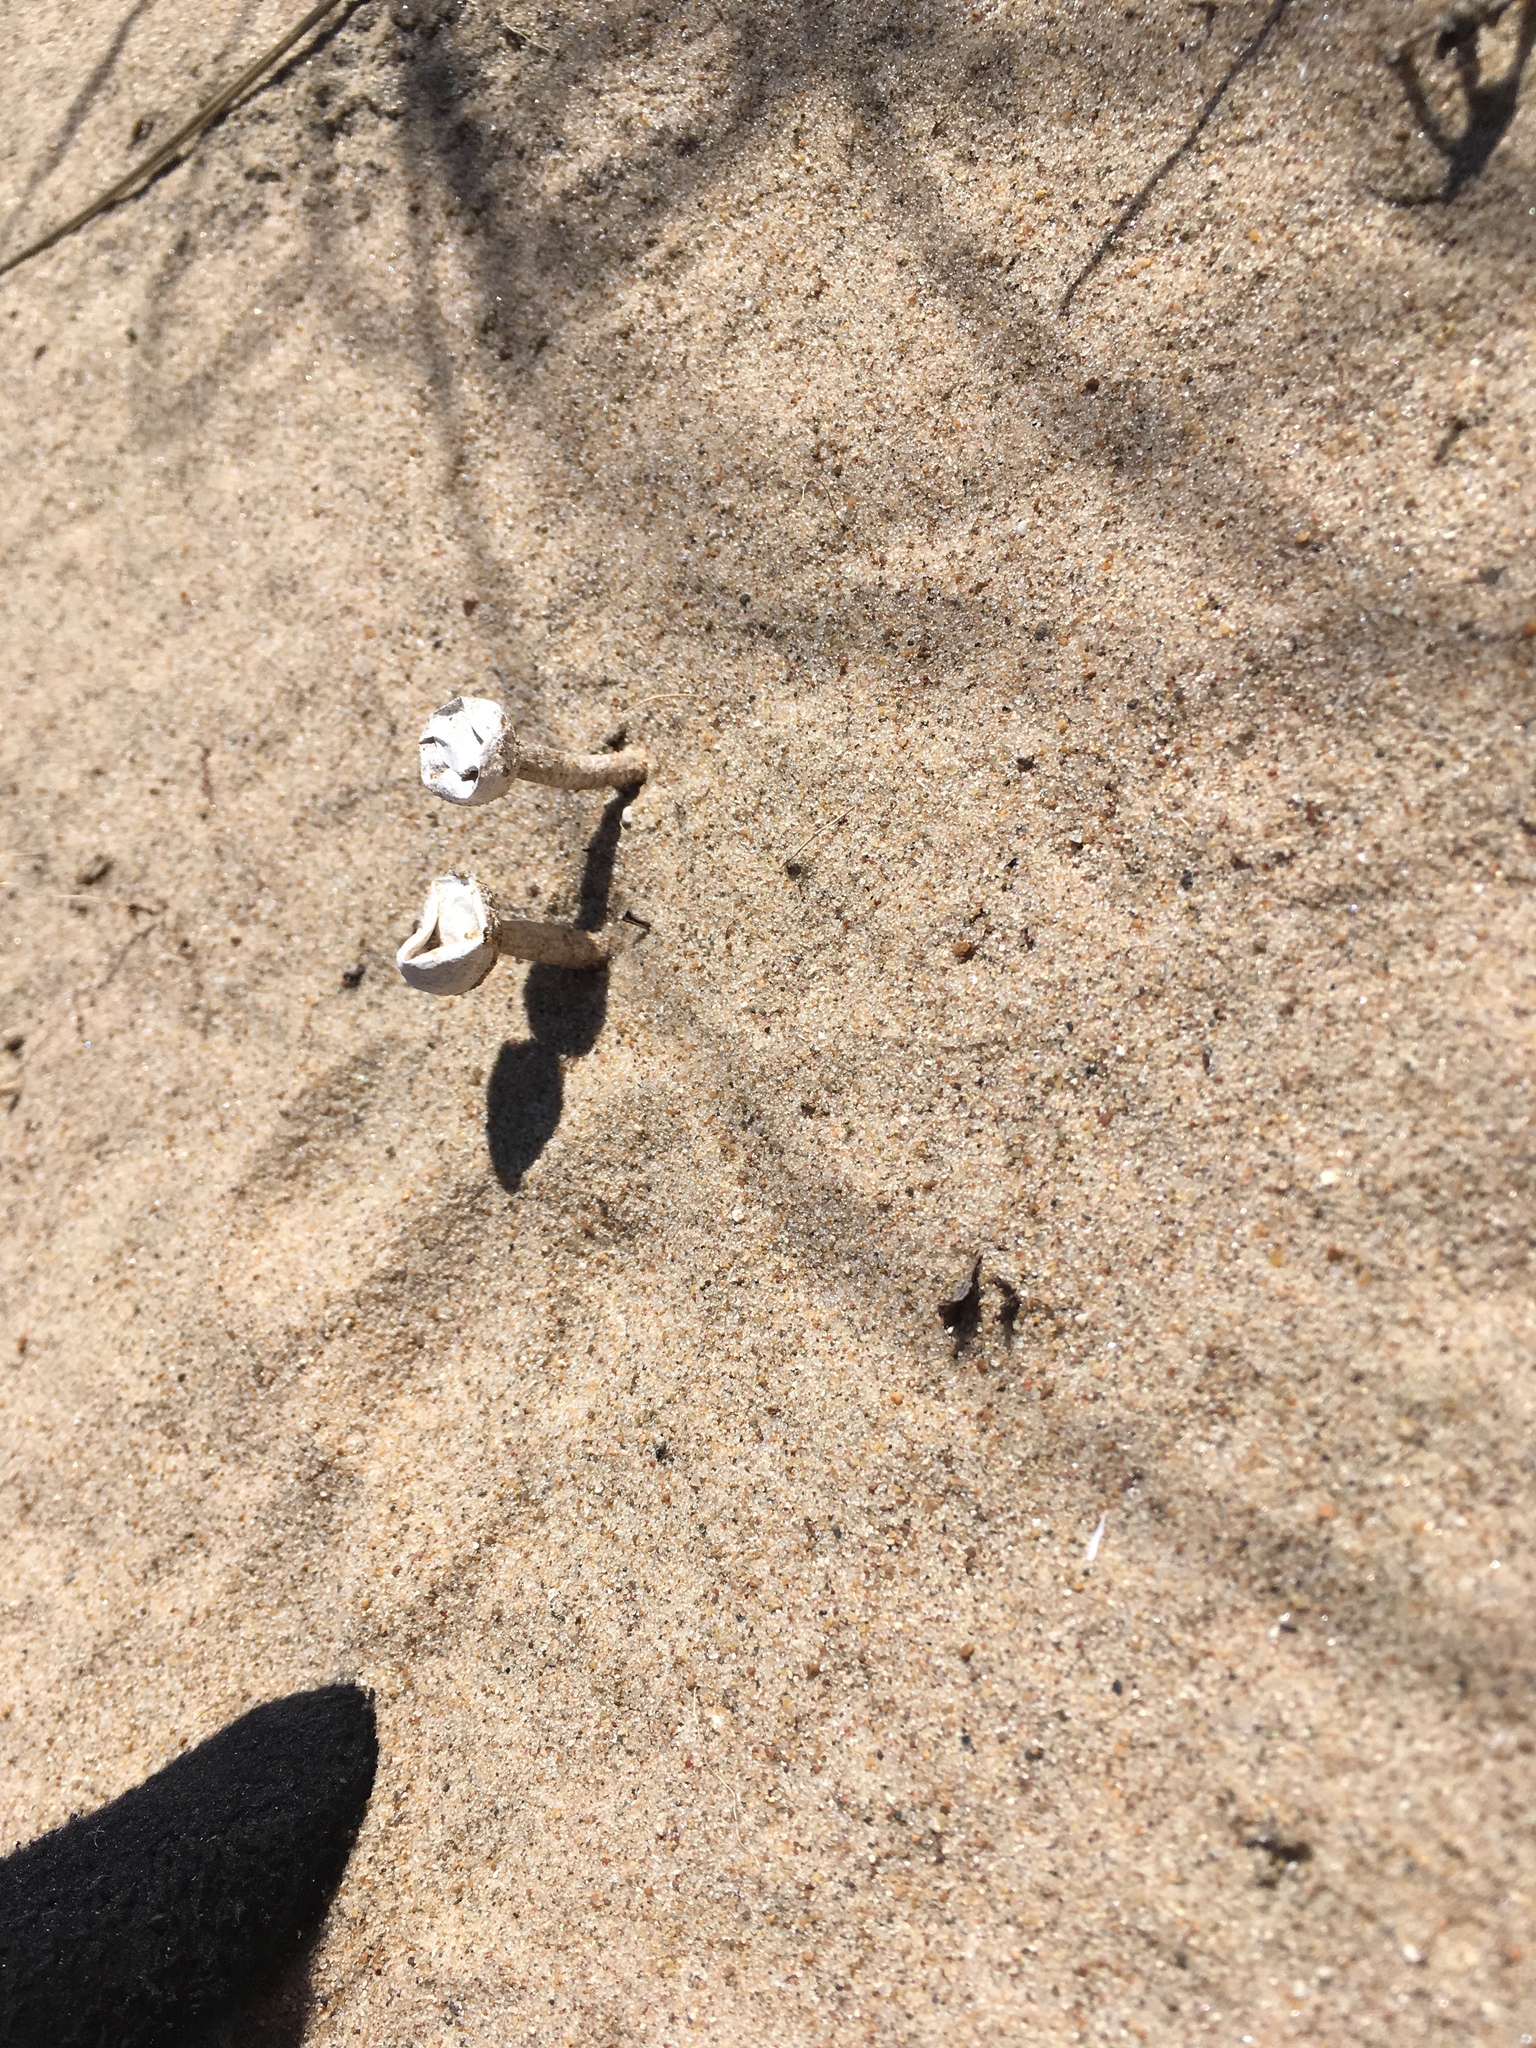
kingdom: Fungi
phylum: Basidiomycota
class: Agaricomycetes
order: Agaricales
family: Agaricaceae
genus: Tulostoma
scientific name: Tulostoma
